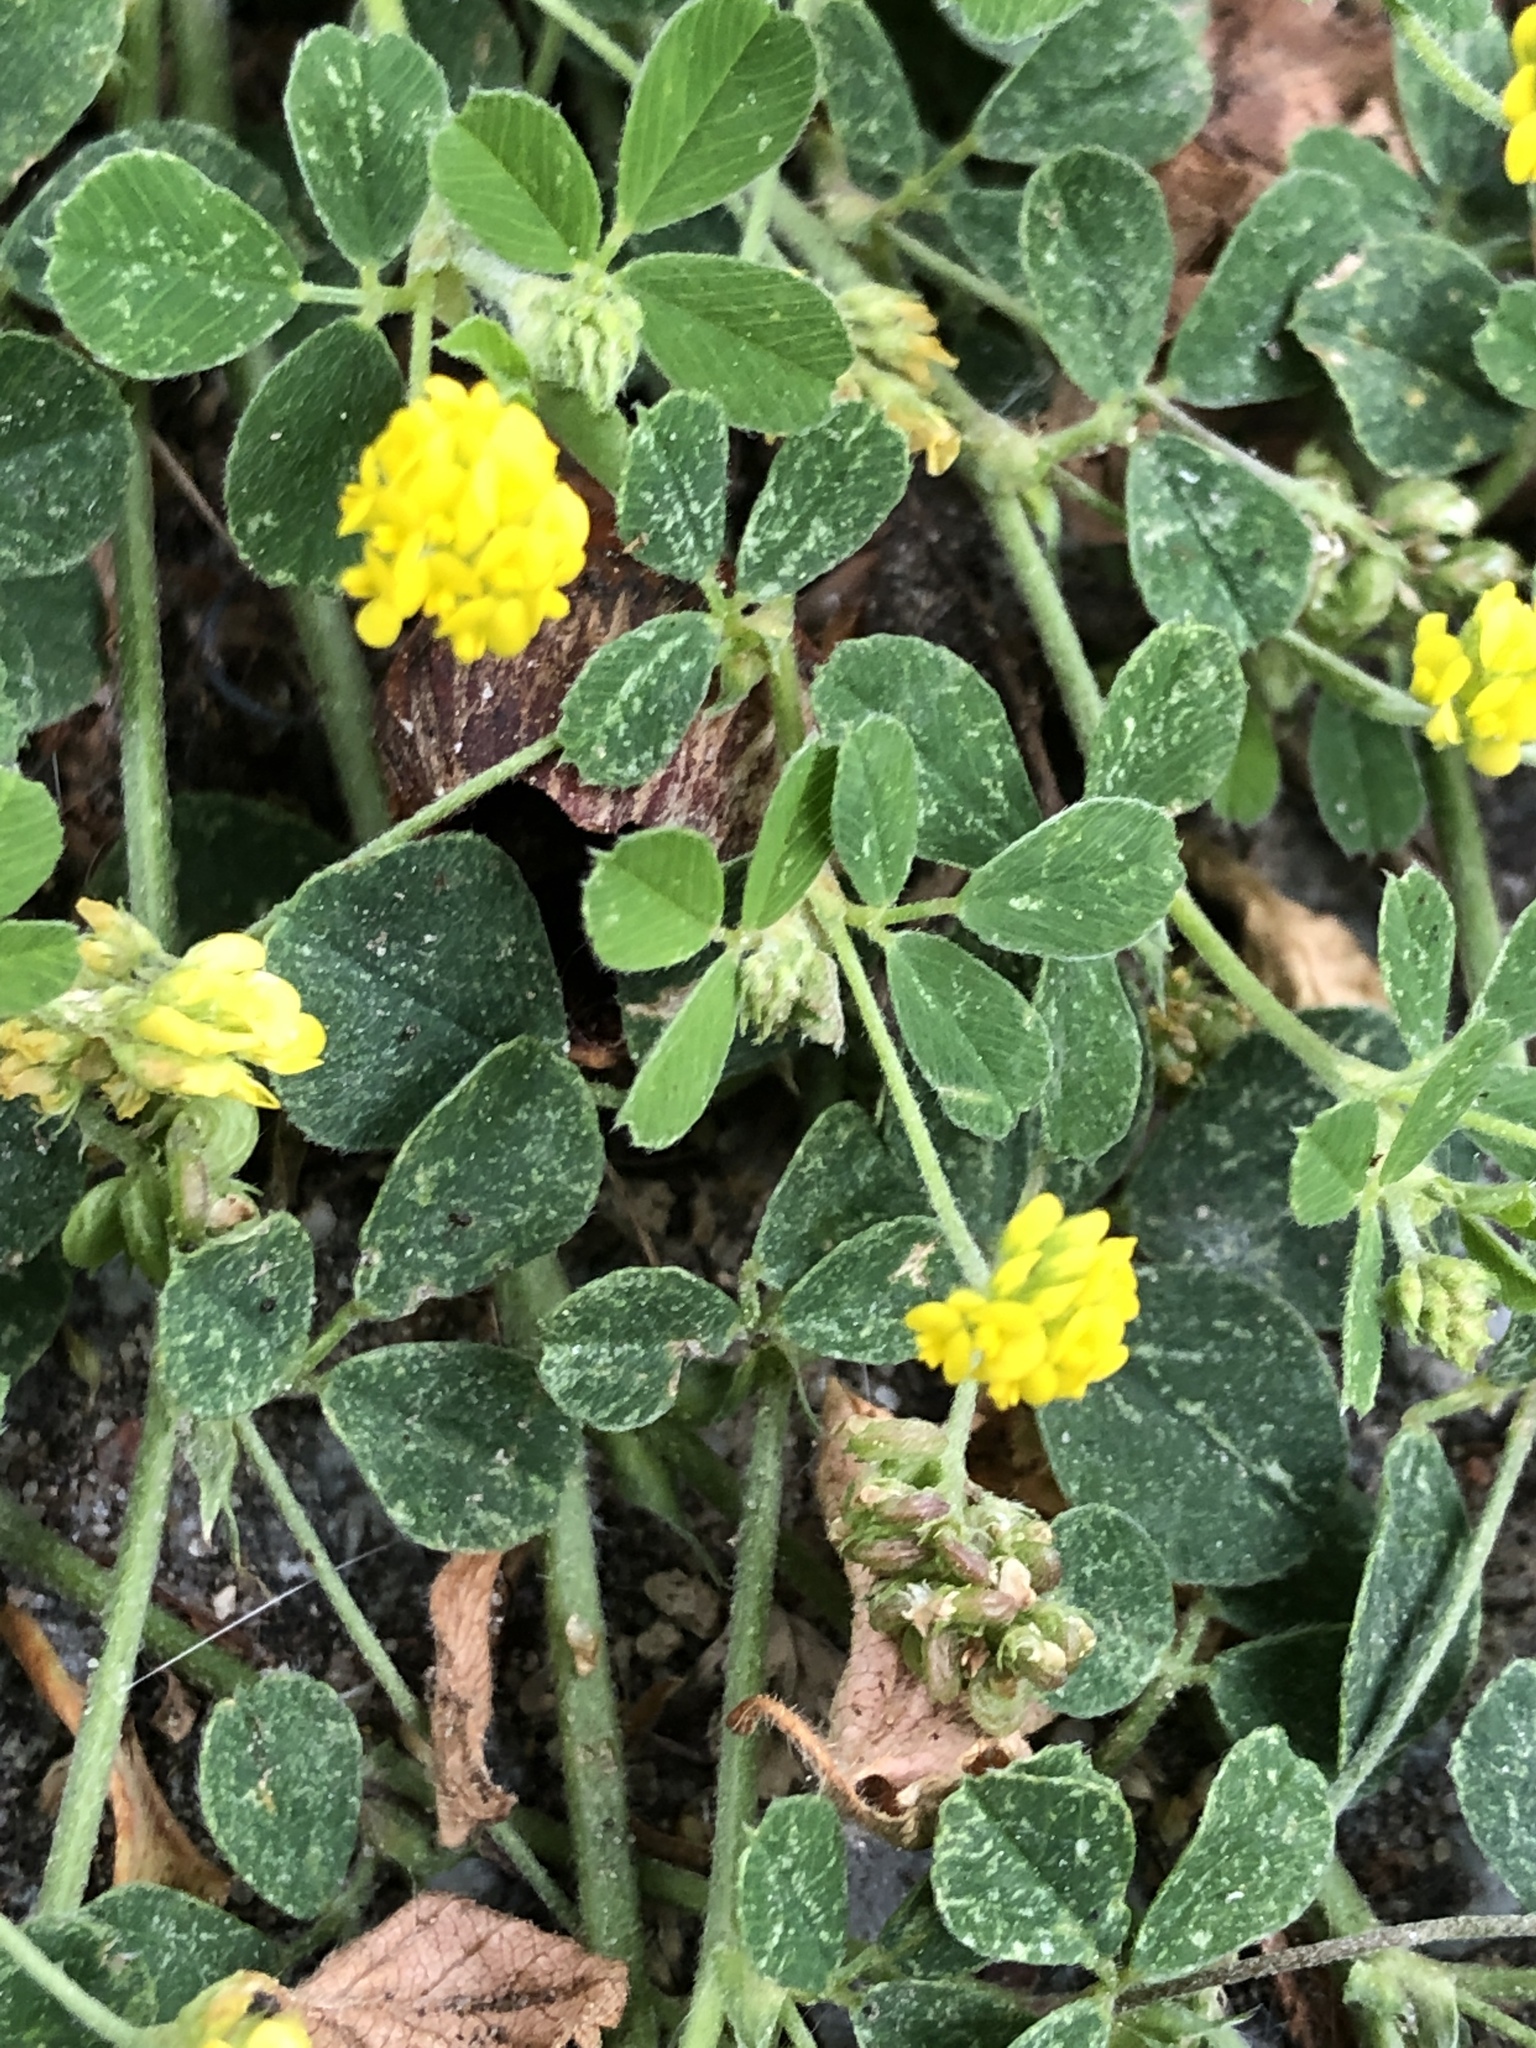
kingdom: Plantae
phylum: Tracheophyta
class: Magnoliopsida
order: Fabales
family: Fabaceae
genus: Medicago
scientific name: Medicago lupulina
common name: Black medick
